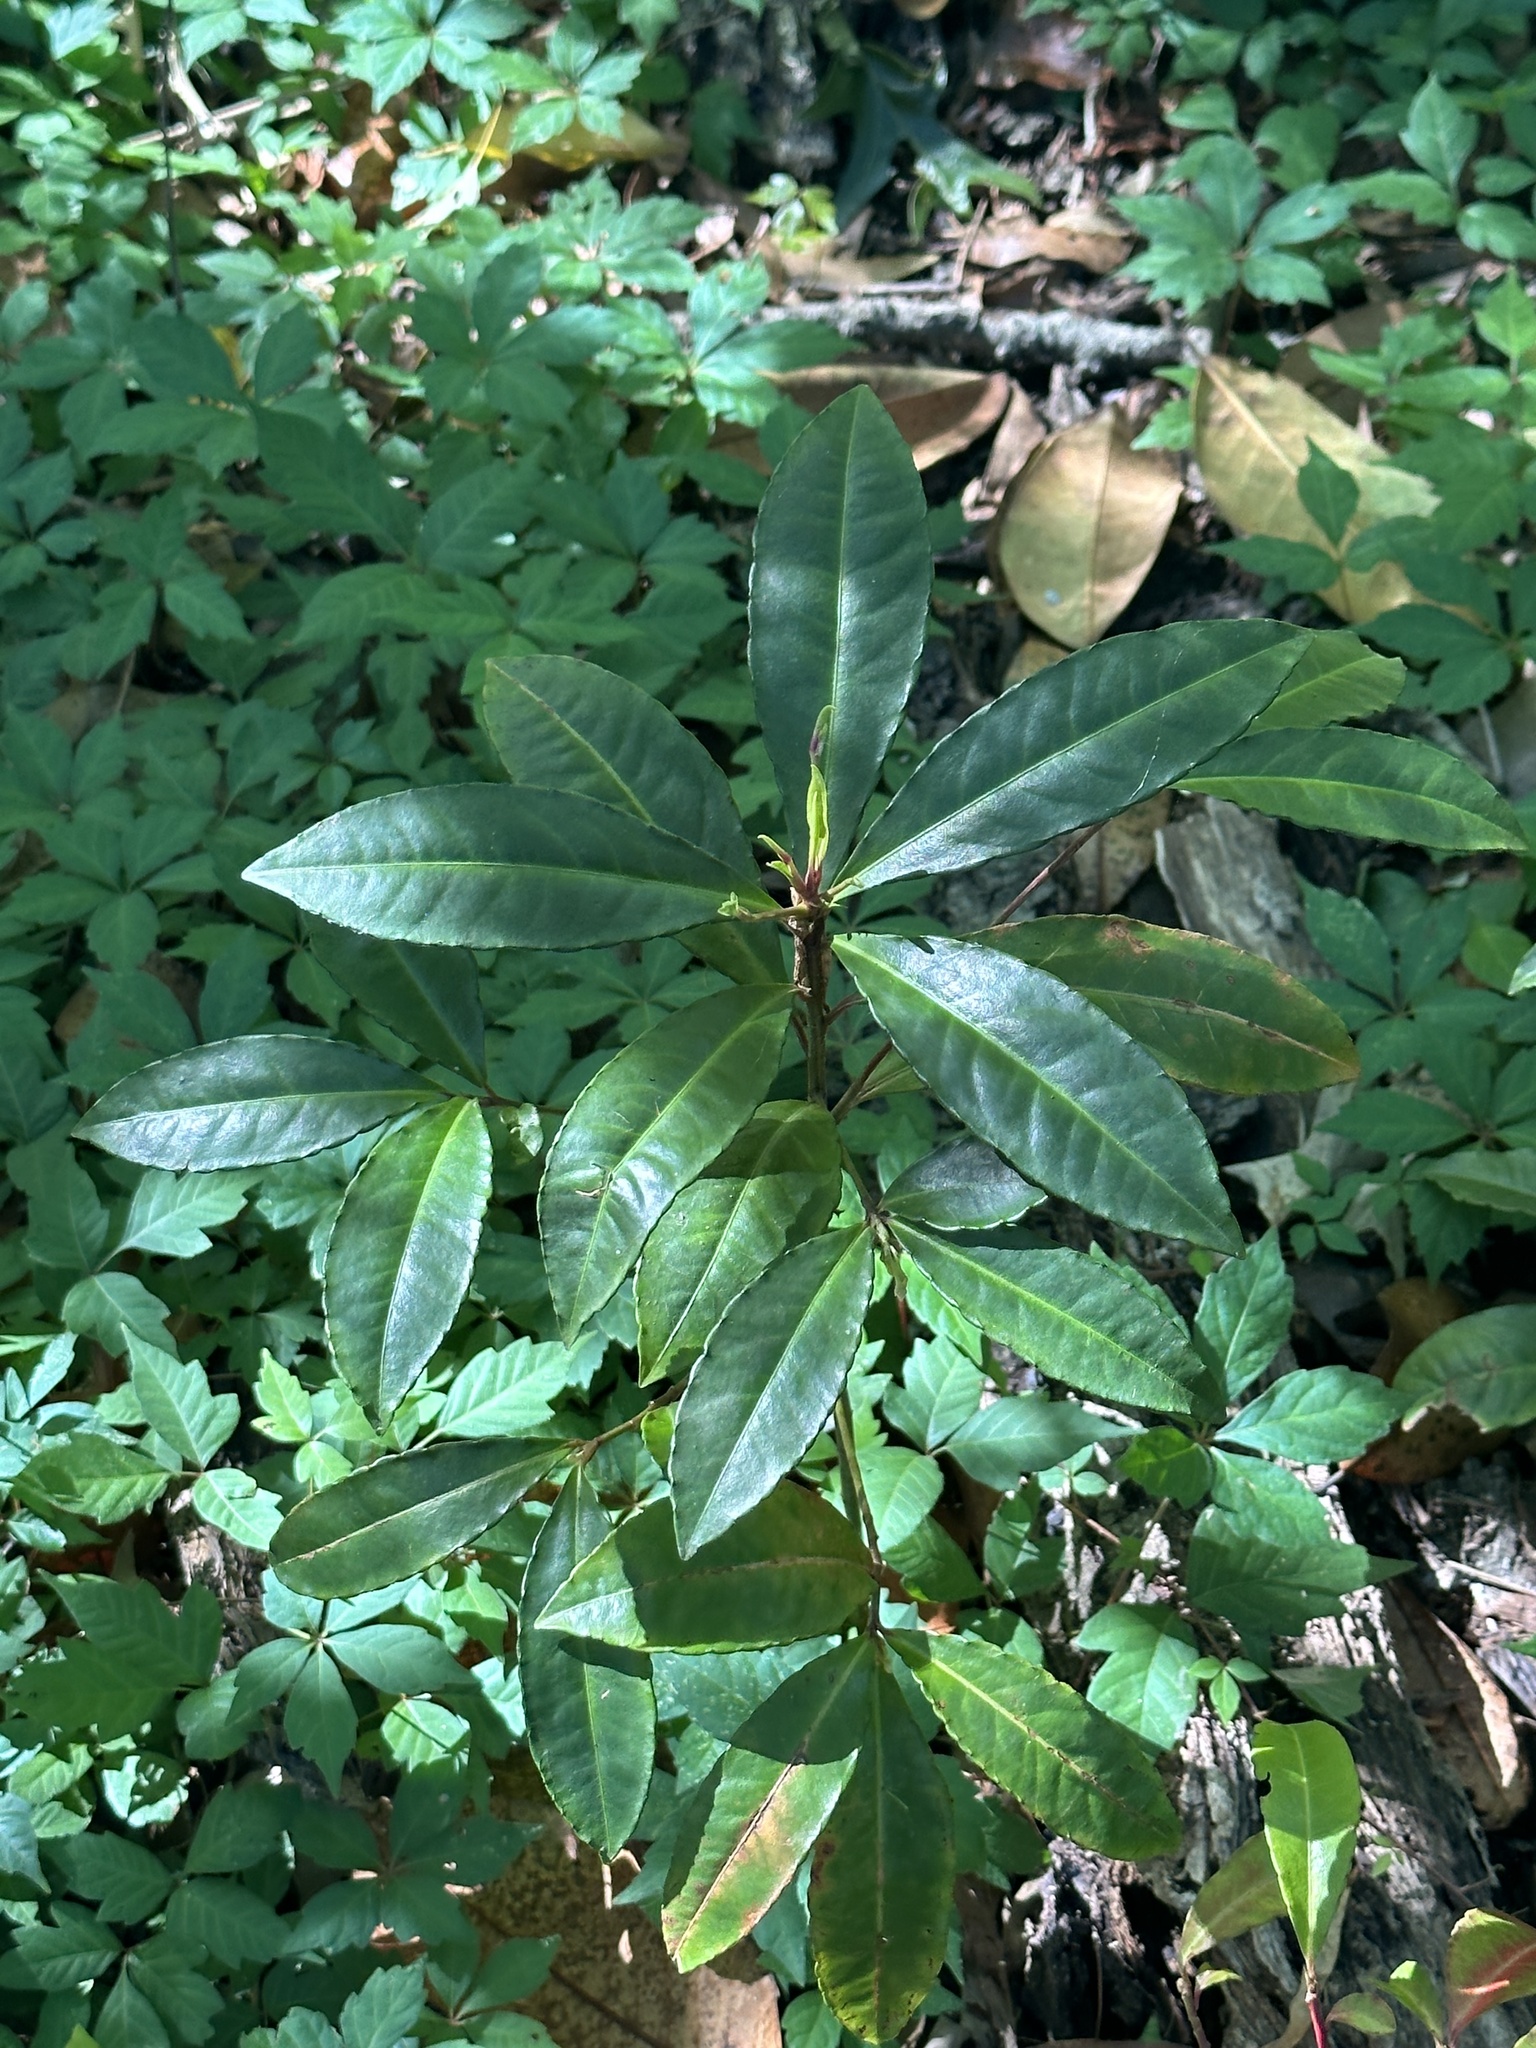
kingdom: Plantae
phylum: Tracheophyta
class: Magnoliopsida
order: Ericales
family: Primulaceae
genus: Ardisia
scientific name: Ardisia crenata
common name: Hen's eyes
